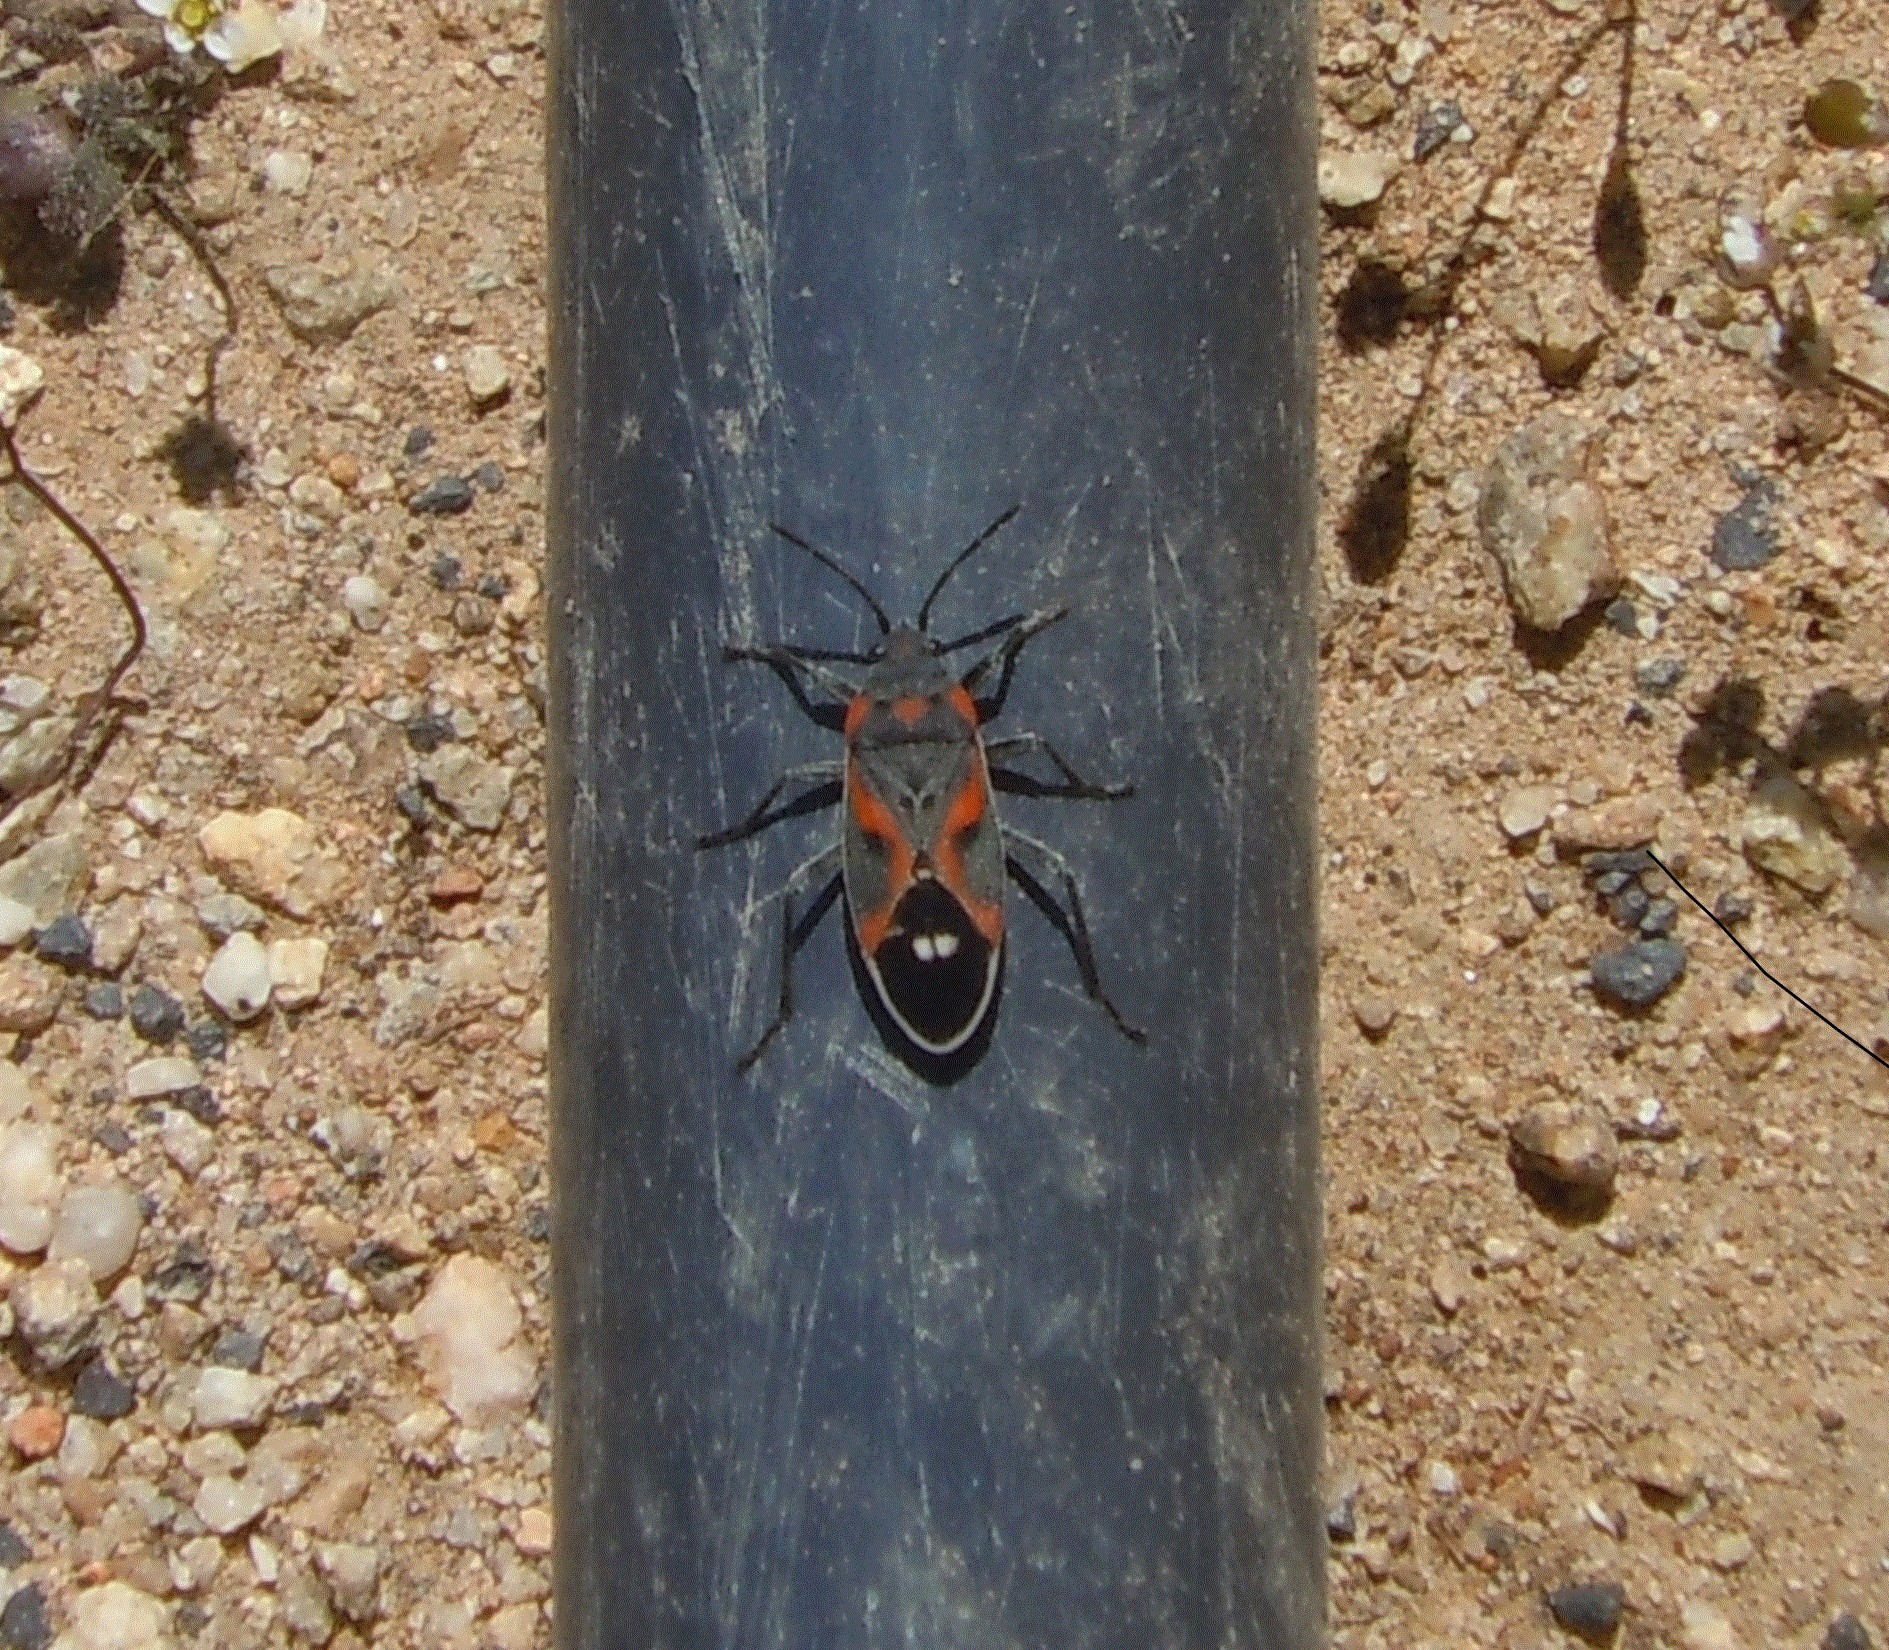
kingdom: Animalia
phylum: Arthropoda
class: Insecta
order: Hemiptera
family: Lygaeidae
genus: Lygaeus
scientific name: Lygaeus kalmii
